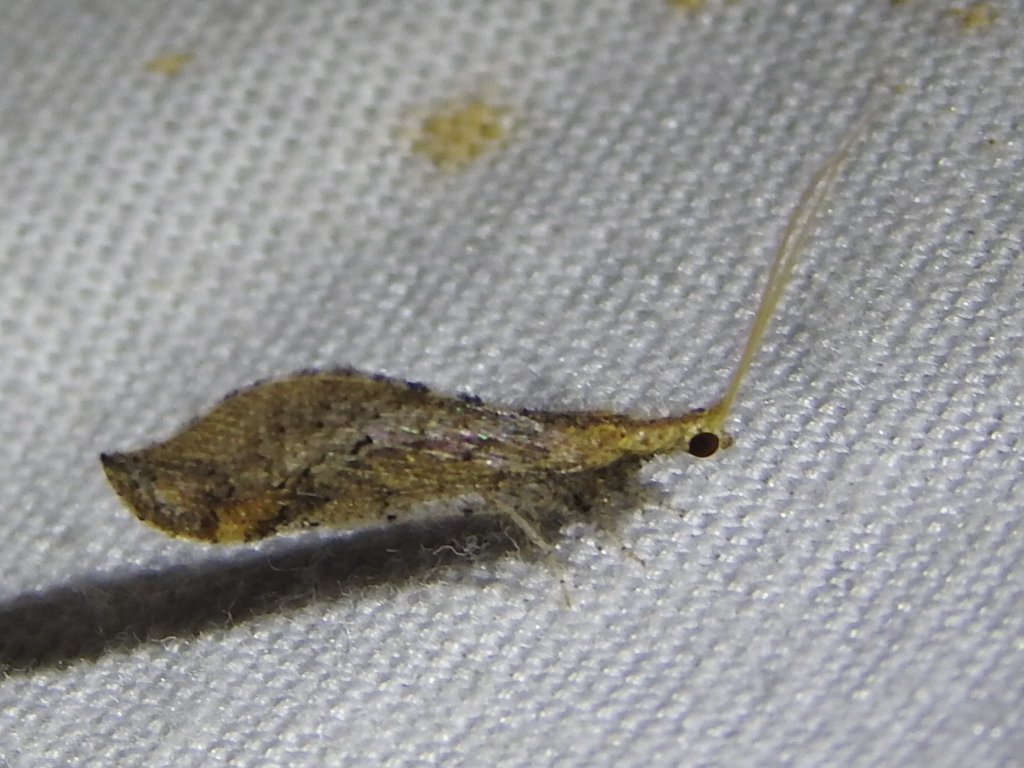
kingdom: Animalia
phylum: Arthropoda
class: Insecta
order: Neuroptera
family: Berothidae
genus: Lomamyia
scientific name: Lomamyia squamosa
